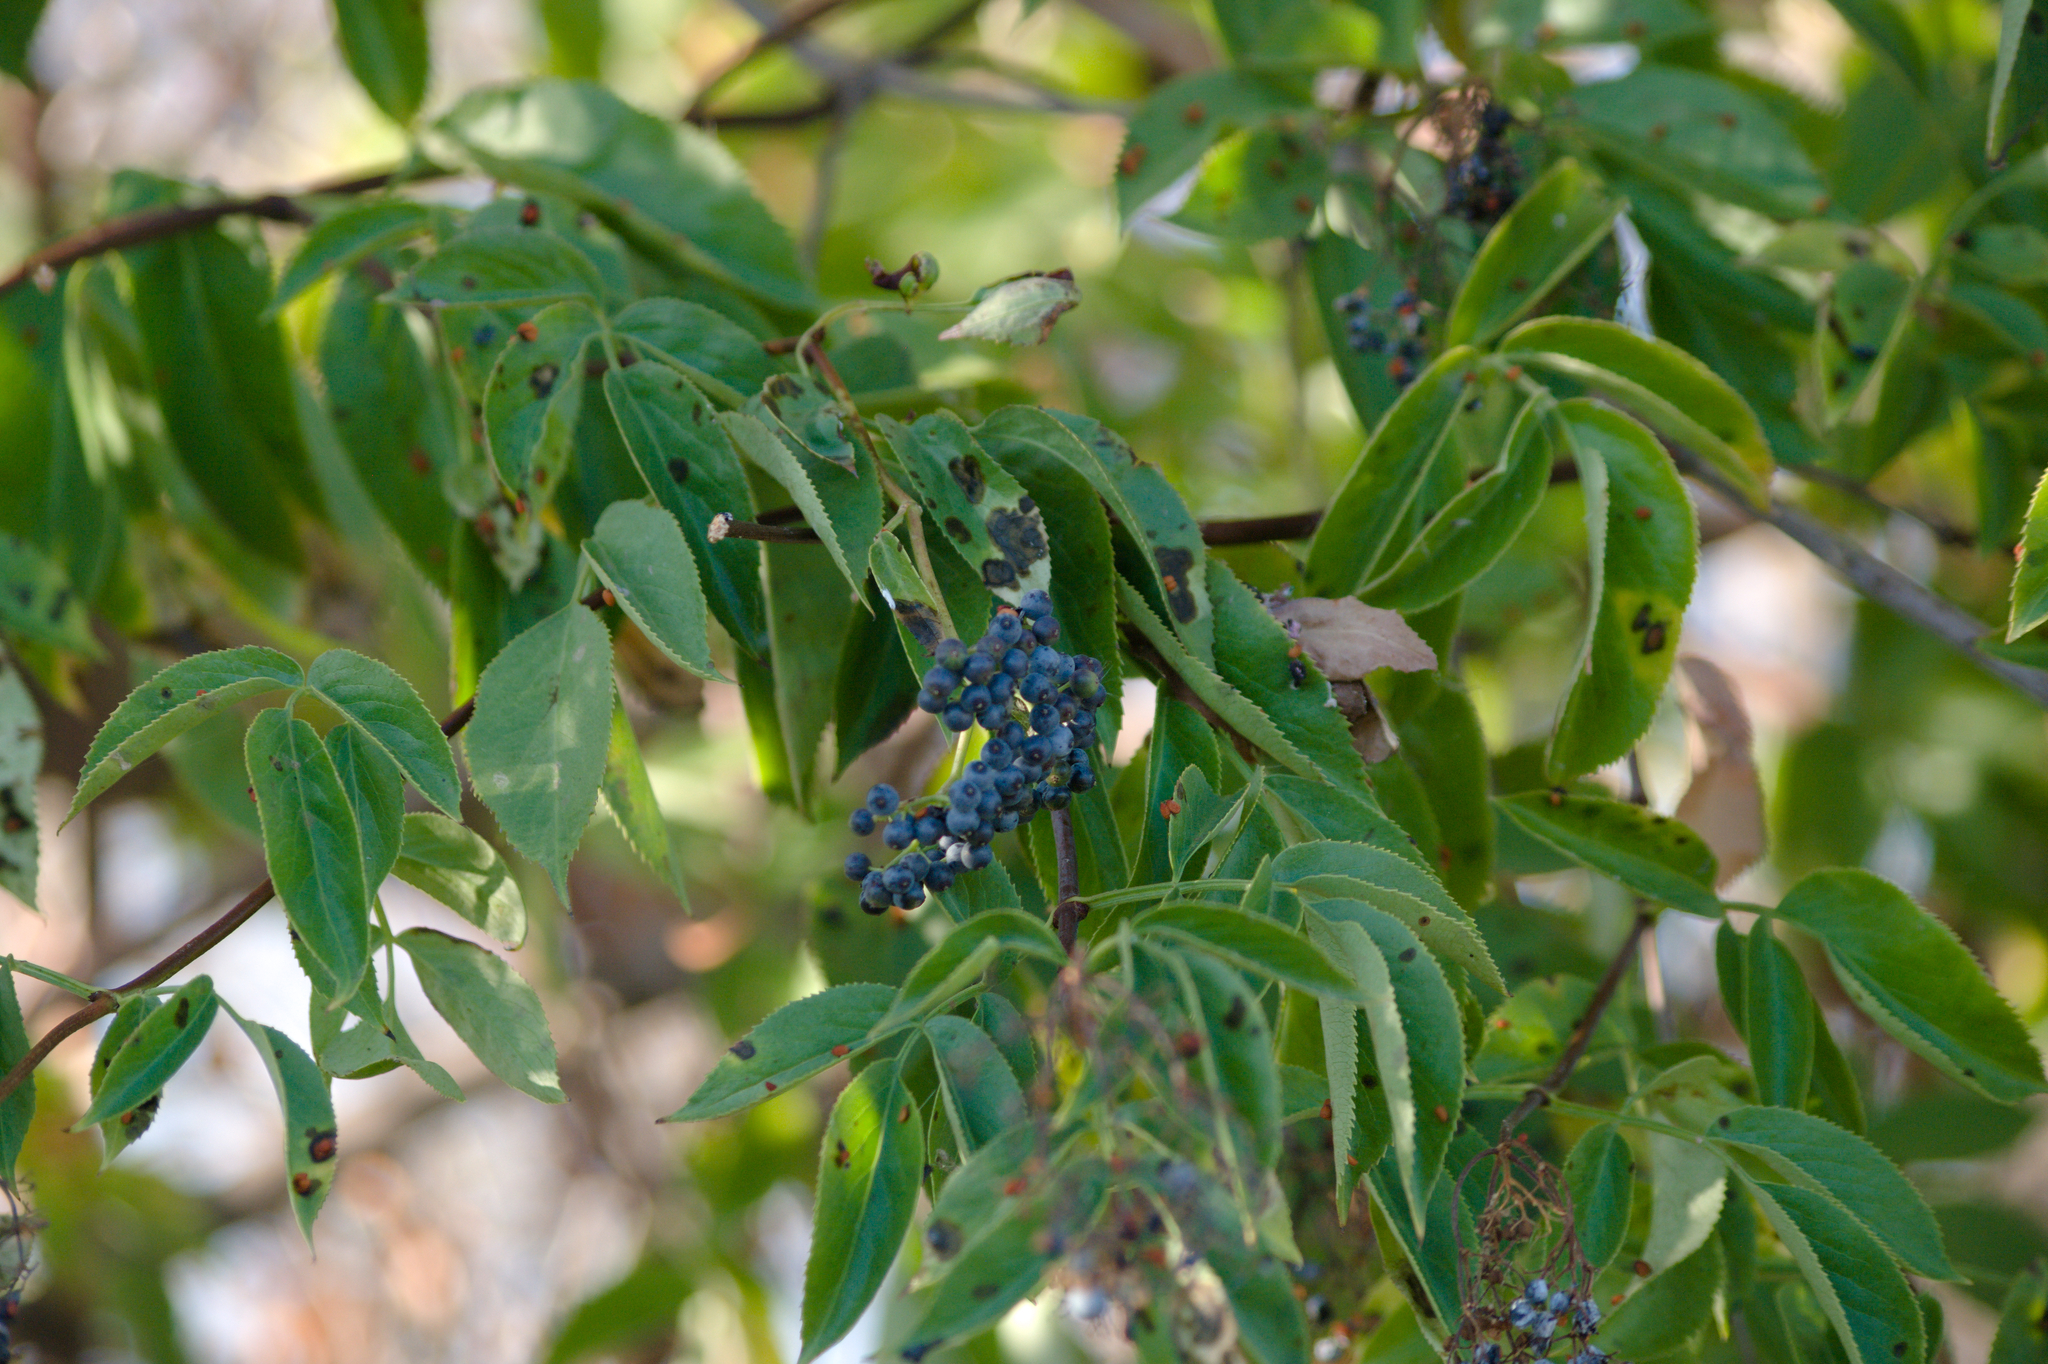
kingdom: Plantae
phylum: Tracheophyta
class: Magnoliopsida
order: Dipsacales
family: Viburnaceae
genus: Sambucus
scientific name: Sambucus cerulea
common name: Blue elder
